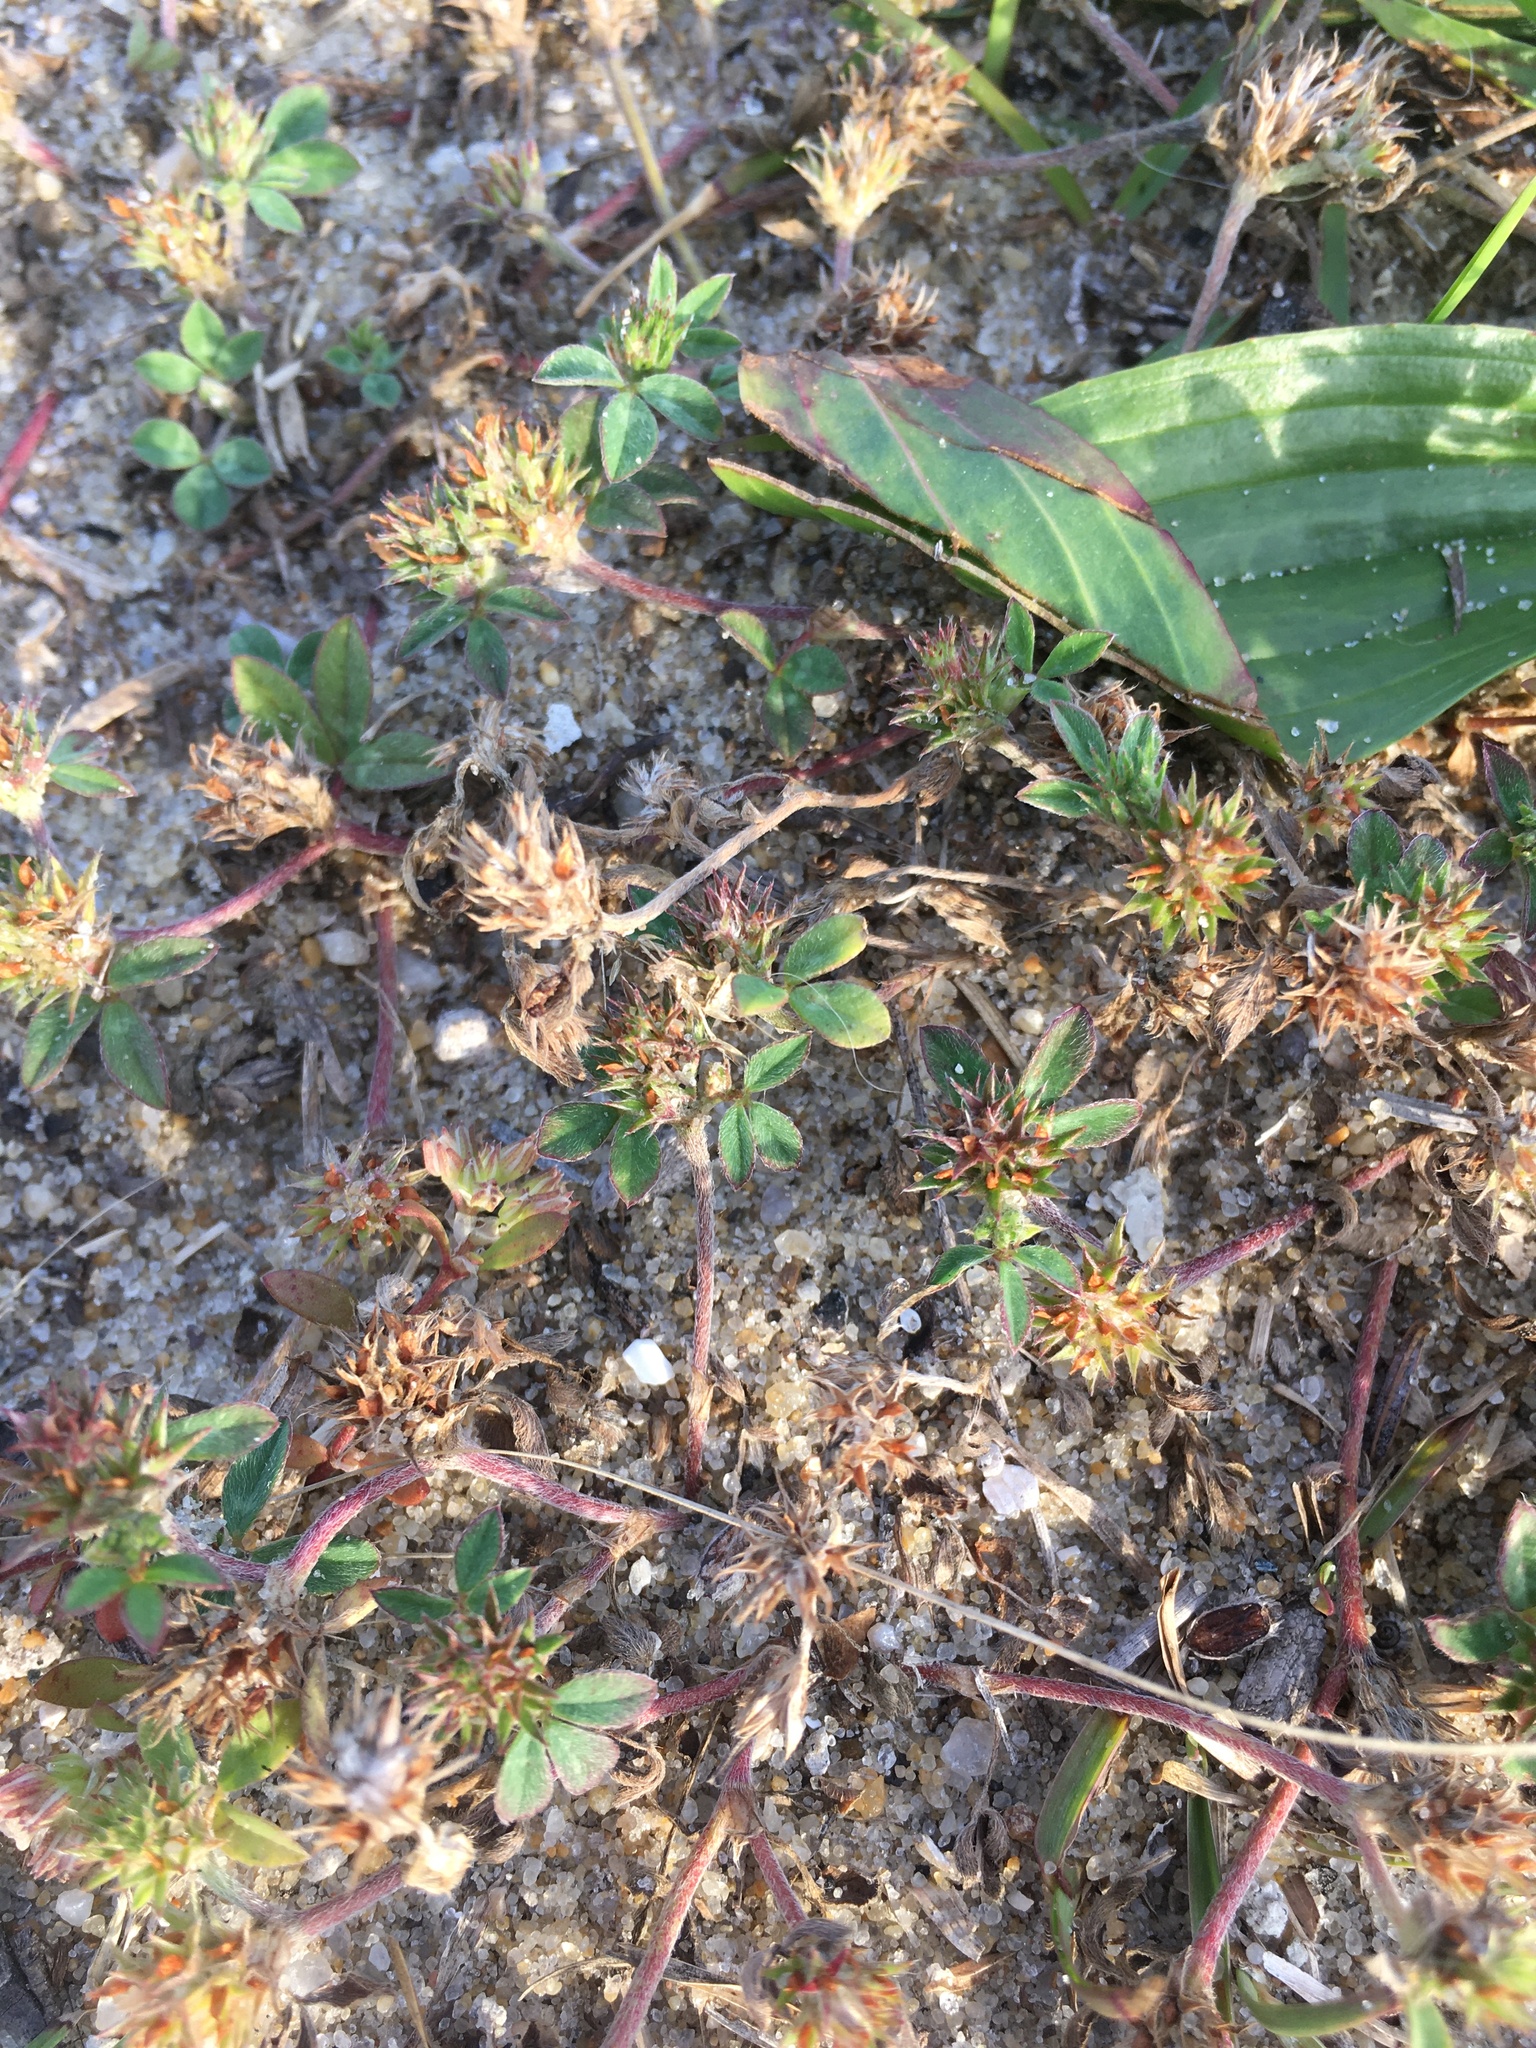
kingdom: Plantae
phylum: Tracheophyta
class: Magnoliopsida
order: Fabales
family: Fabaceae
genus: Trifolium
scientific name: Trifolium scabrum
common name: Rough clover
